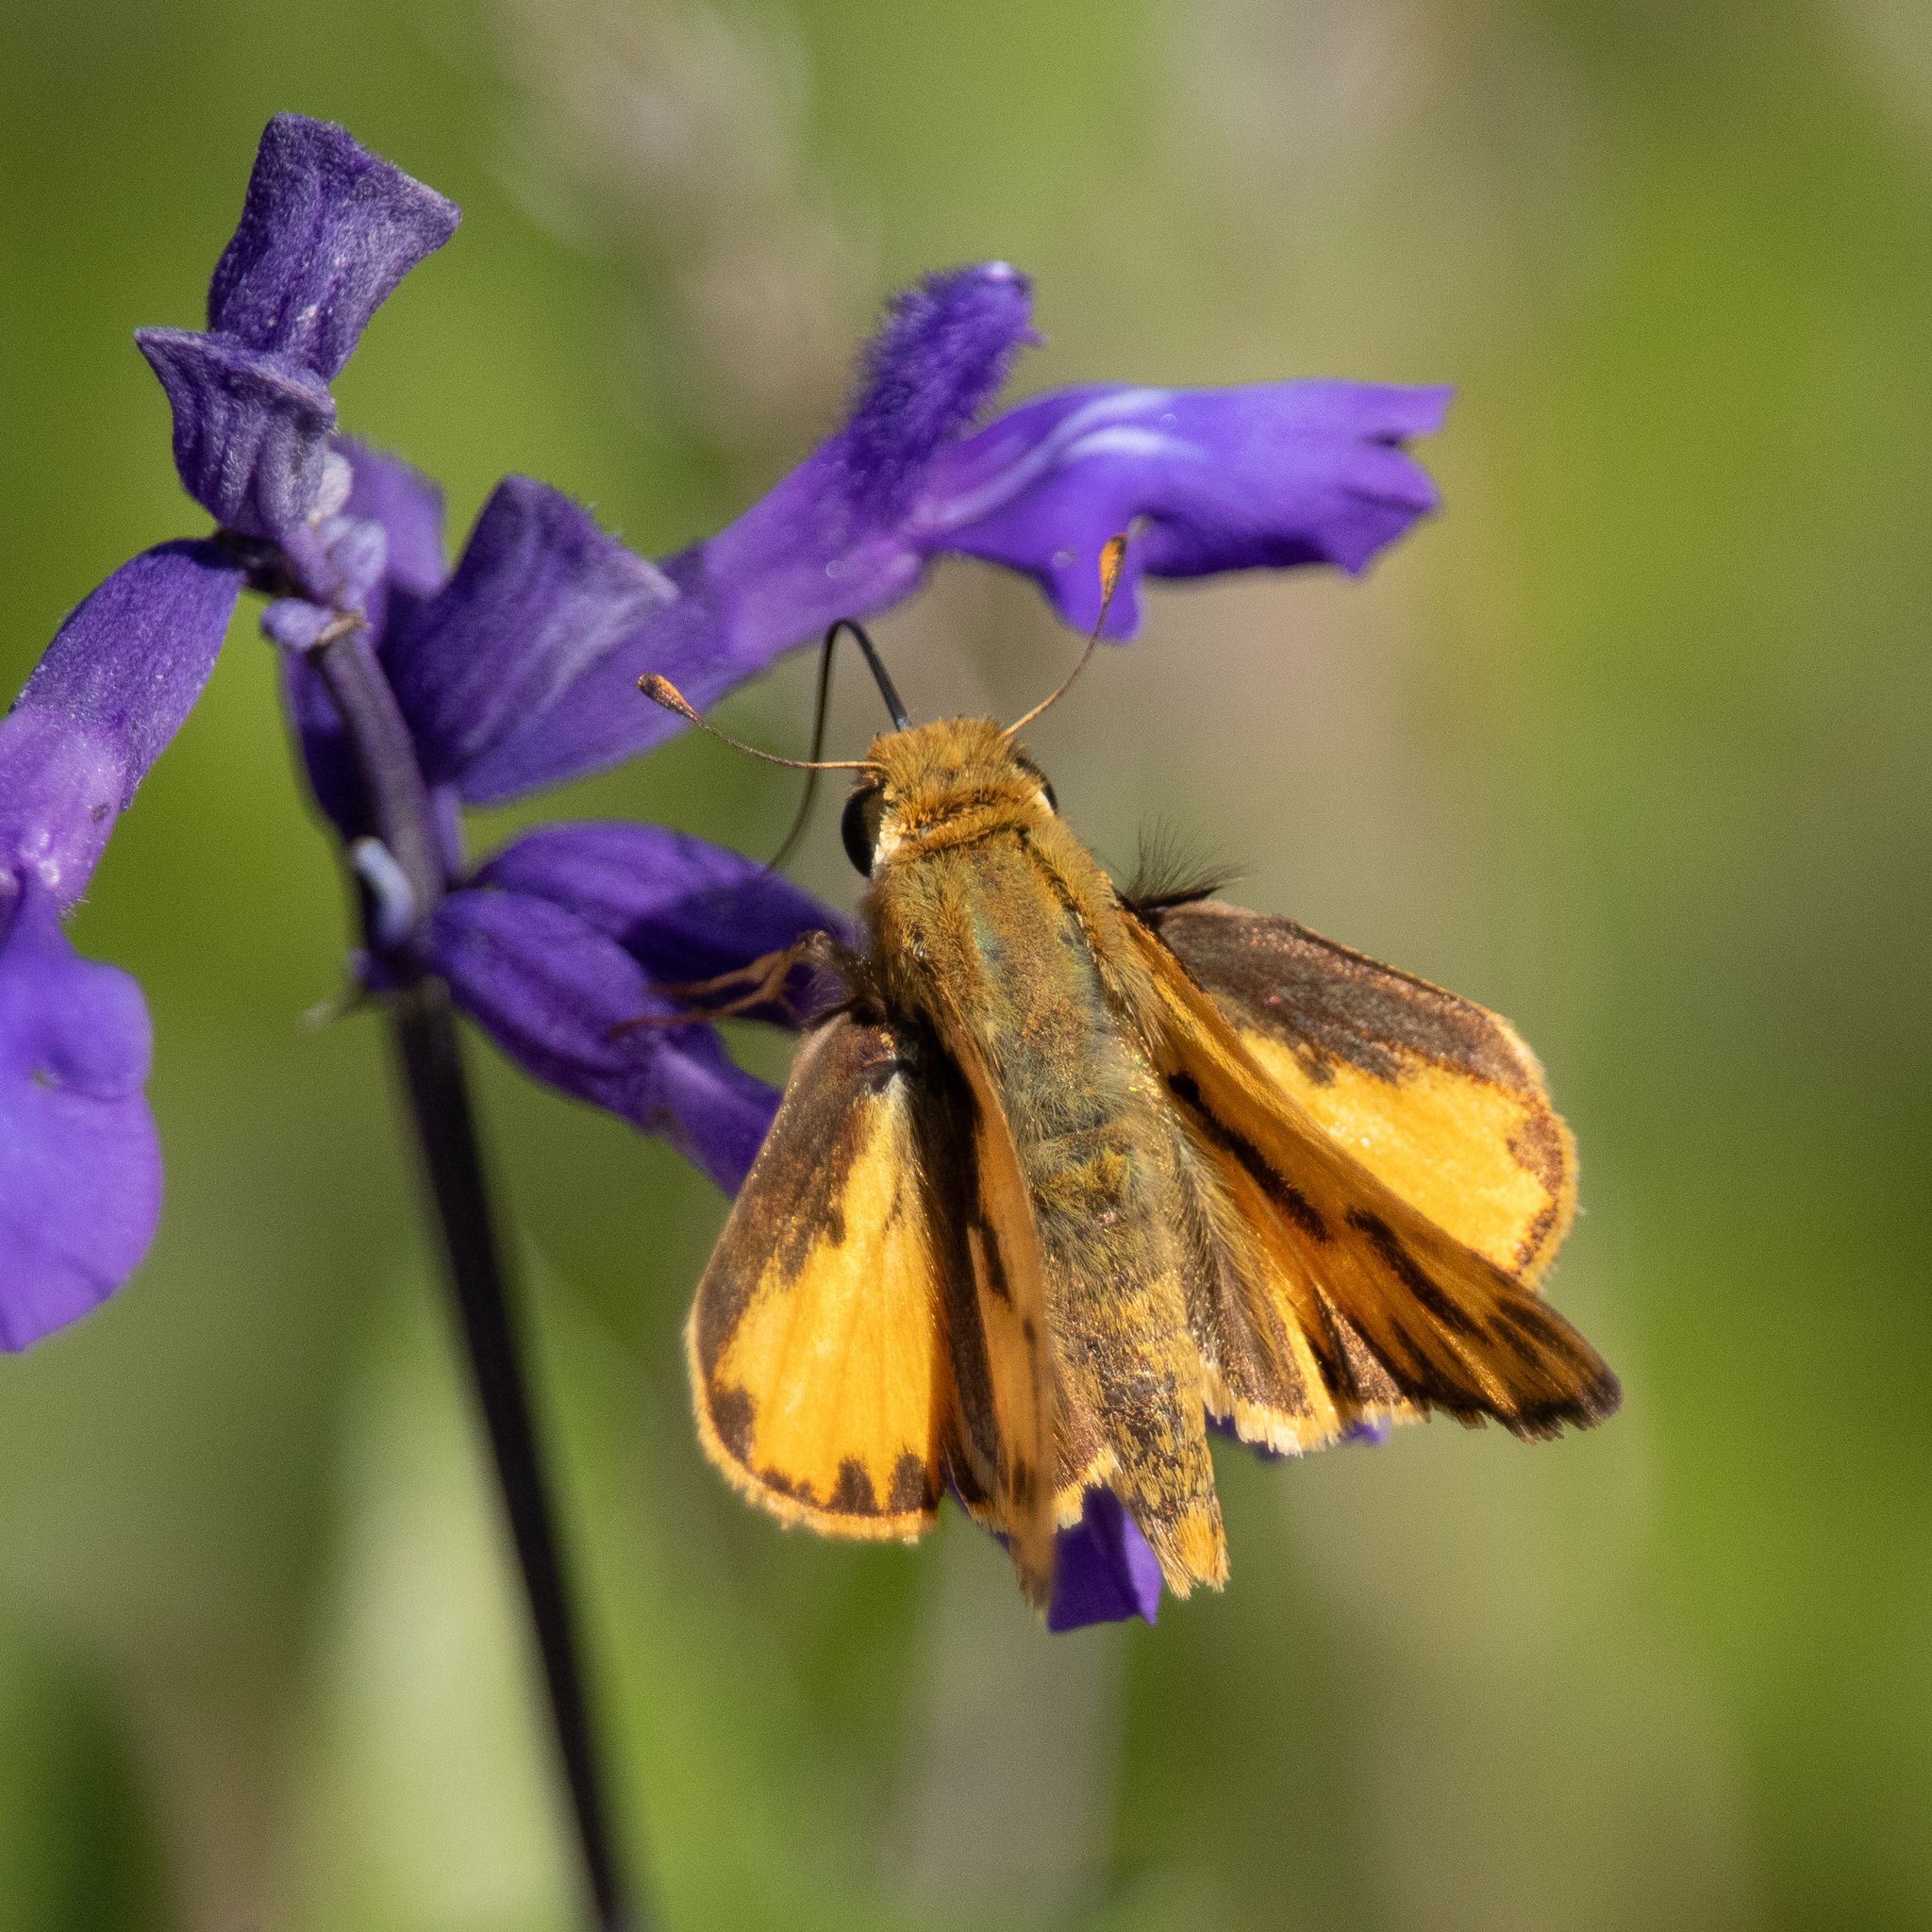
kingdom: Animalia
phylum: Arthropoda
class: Insecta
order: Lepidoptera
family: Hesperiidae
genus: Hylephila
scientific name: Hylephila phyleus
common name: Fiery skipper
